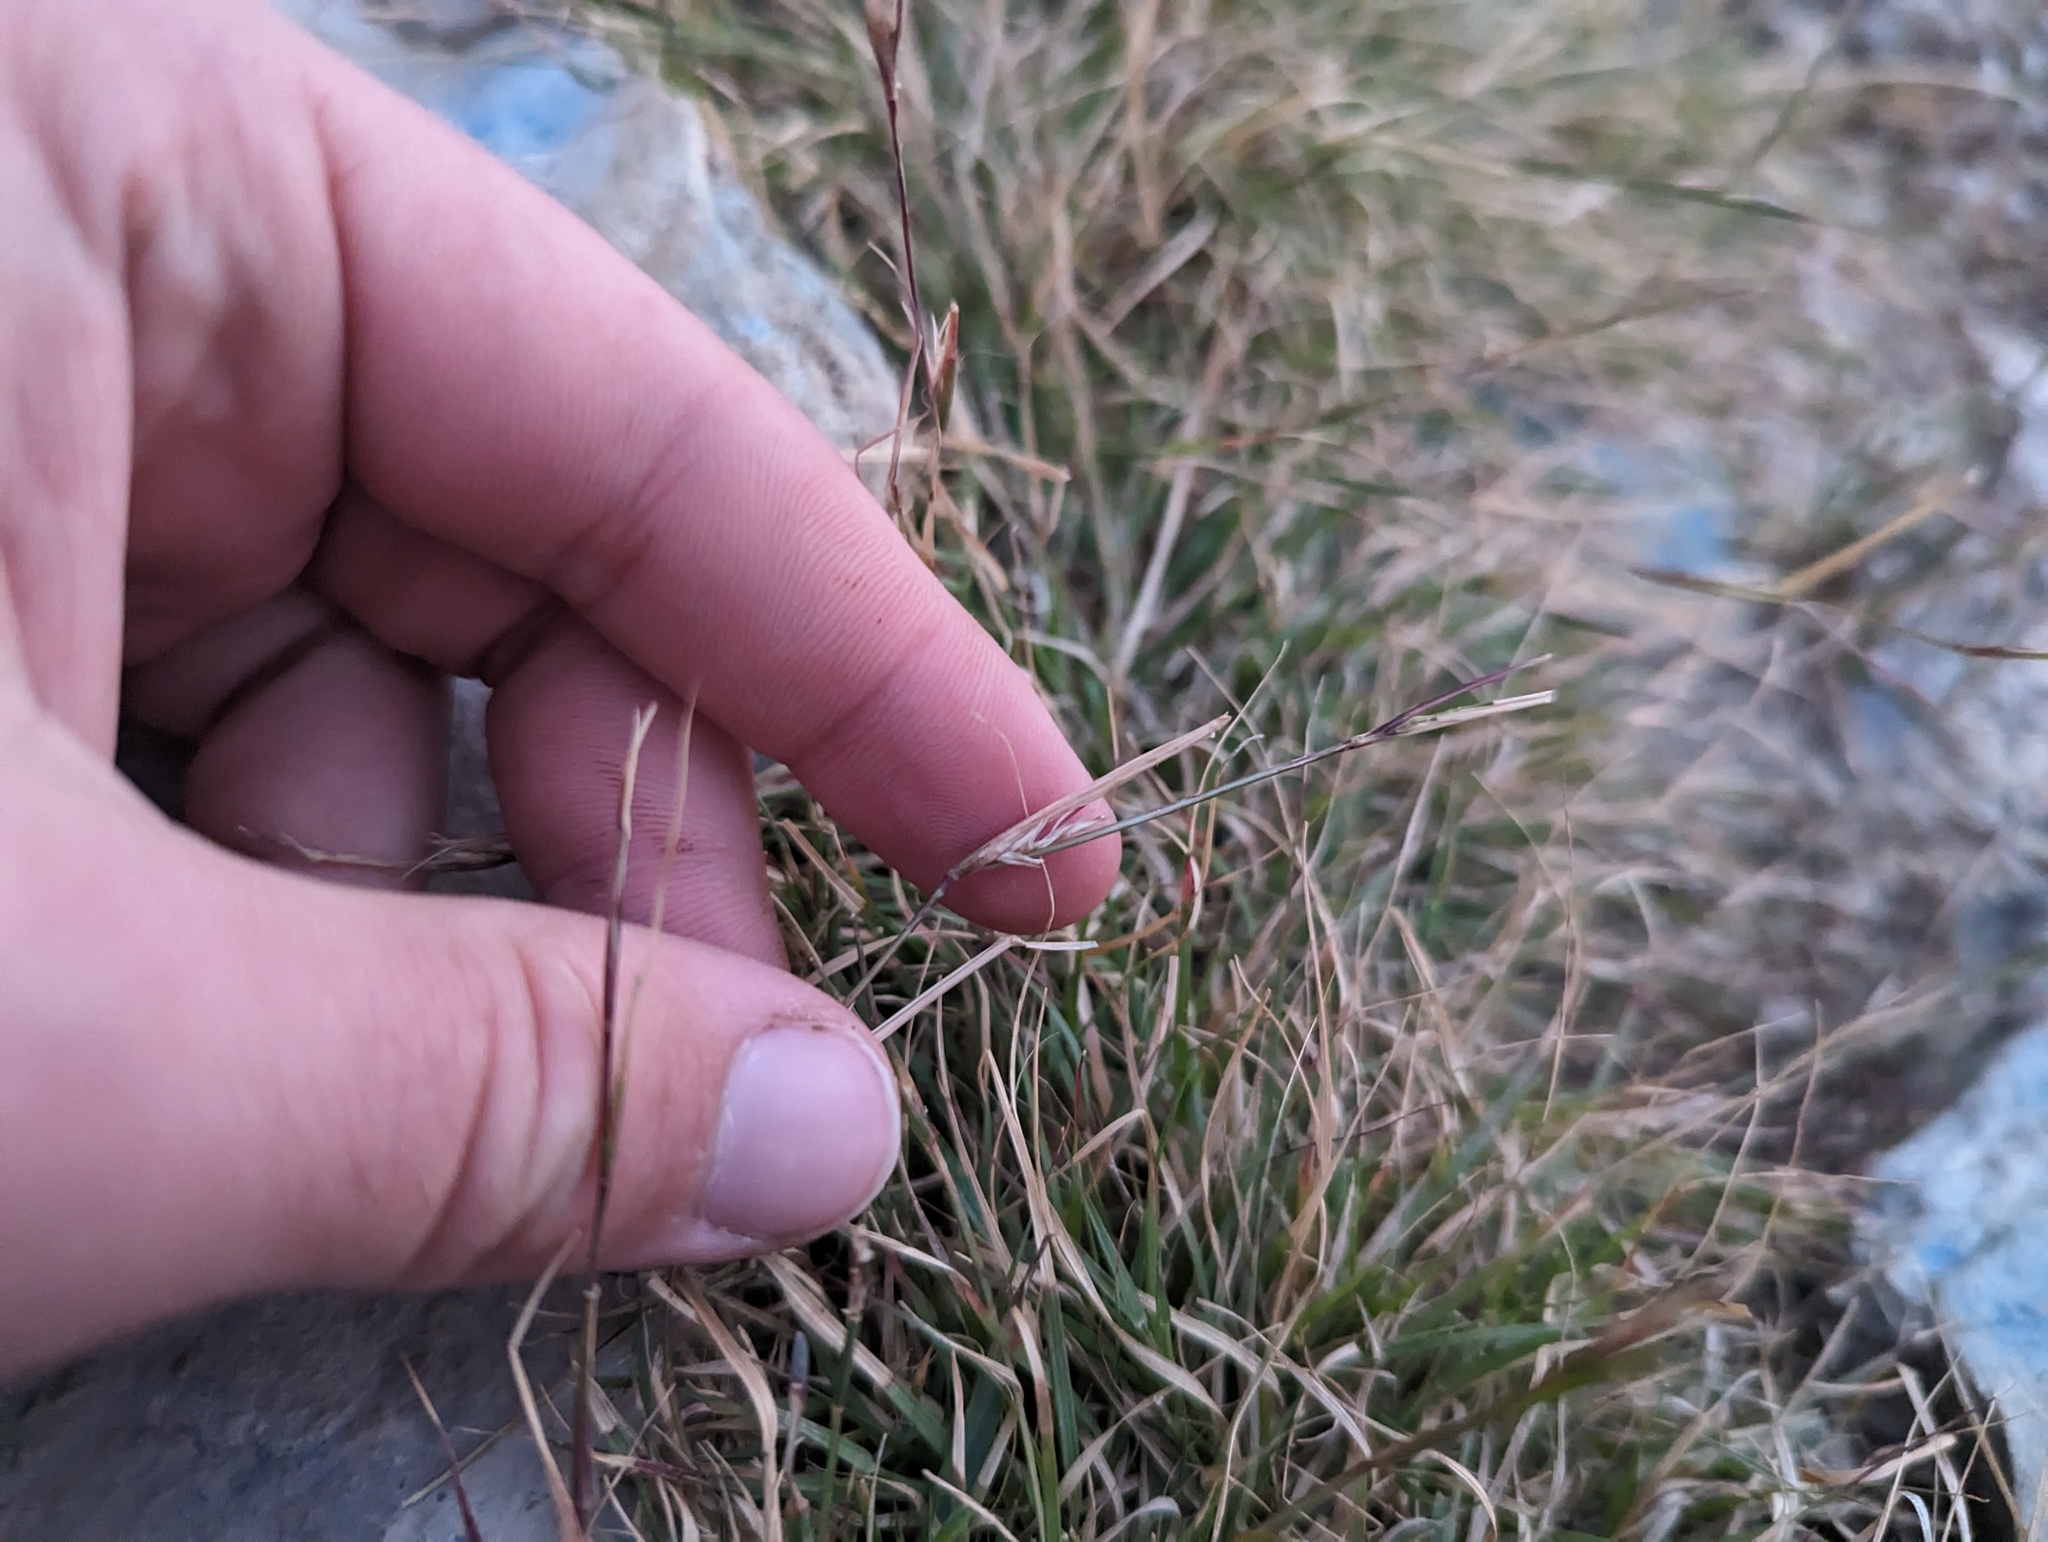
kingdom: Plantae
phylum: Tracheophyta
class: Liliopsida
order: Poales
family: Poaceae
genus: Sporobolus
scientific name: Sporobolus vaginiflorus
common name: Poverty dropseed
